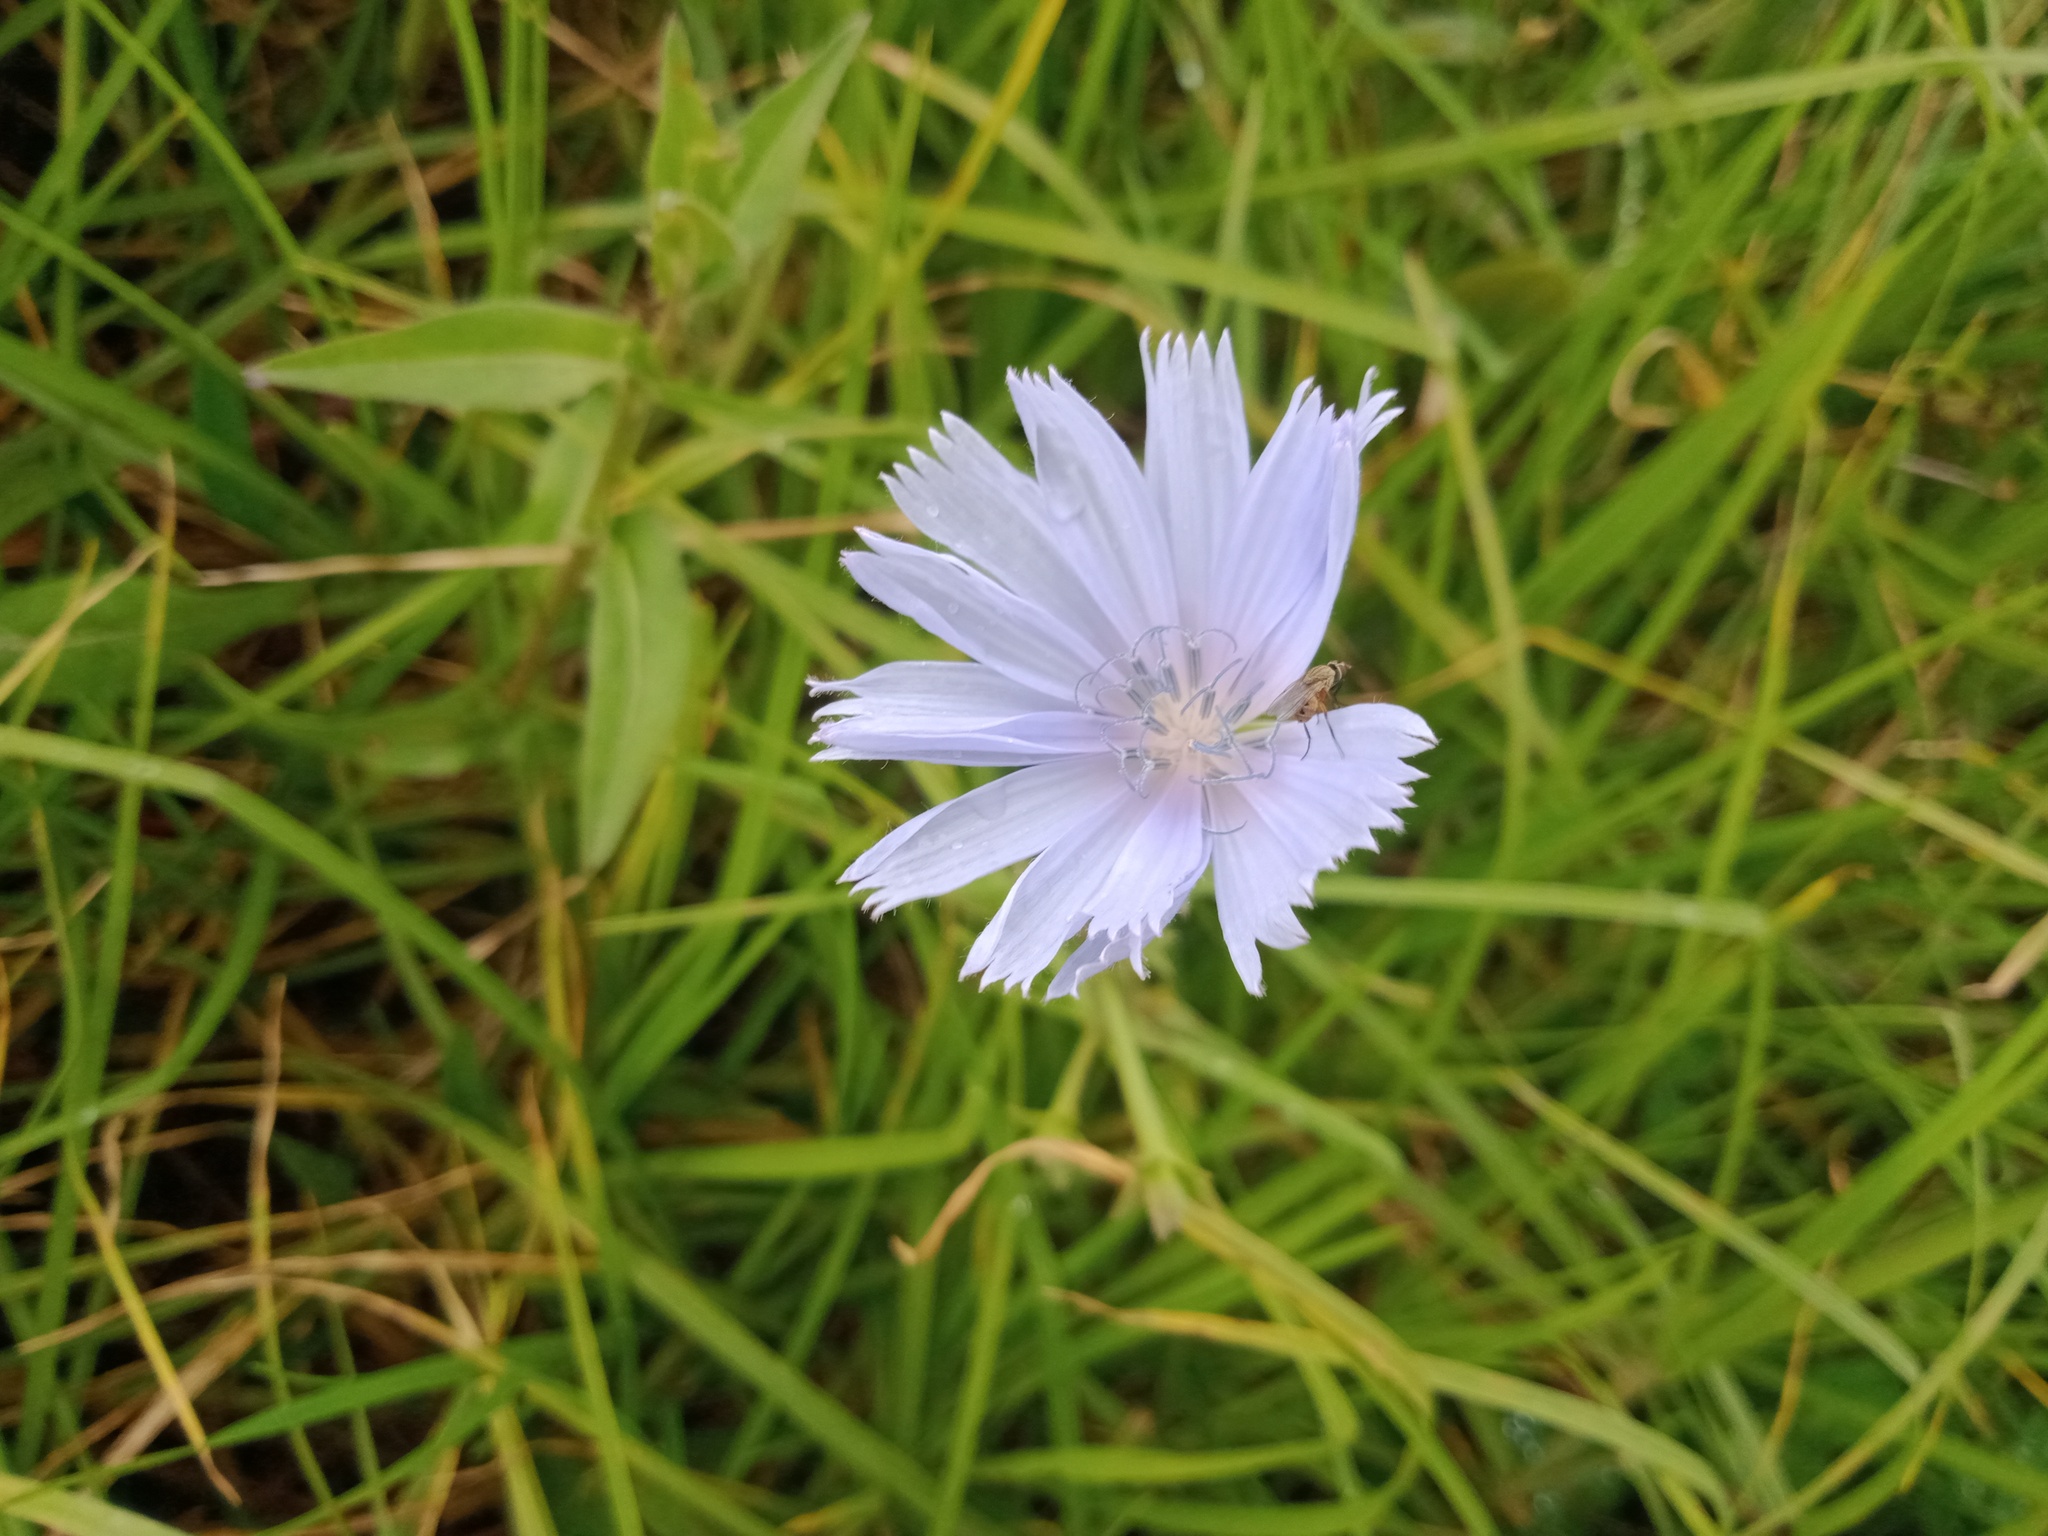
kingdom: Plantae
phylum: Tracheophyta
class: Magnoliopsida
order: Asterales
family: Asteraceae
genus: Cichorium
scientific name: Cichorium intybus
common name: Chicory
